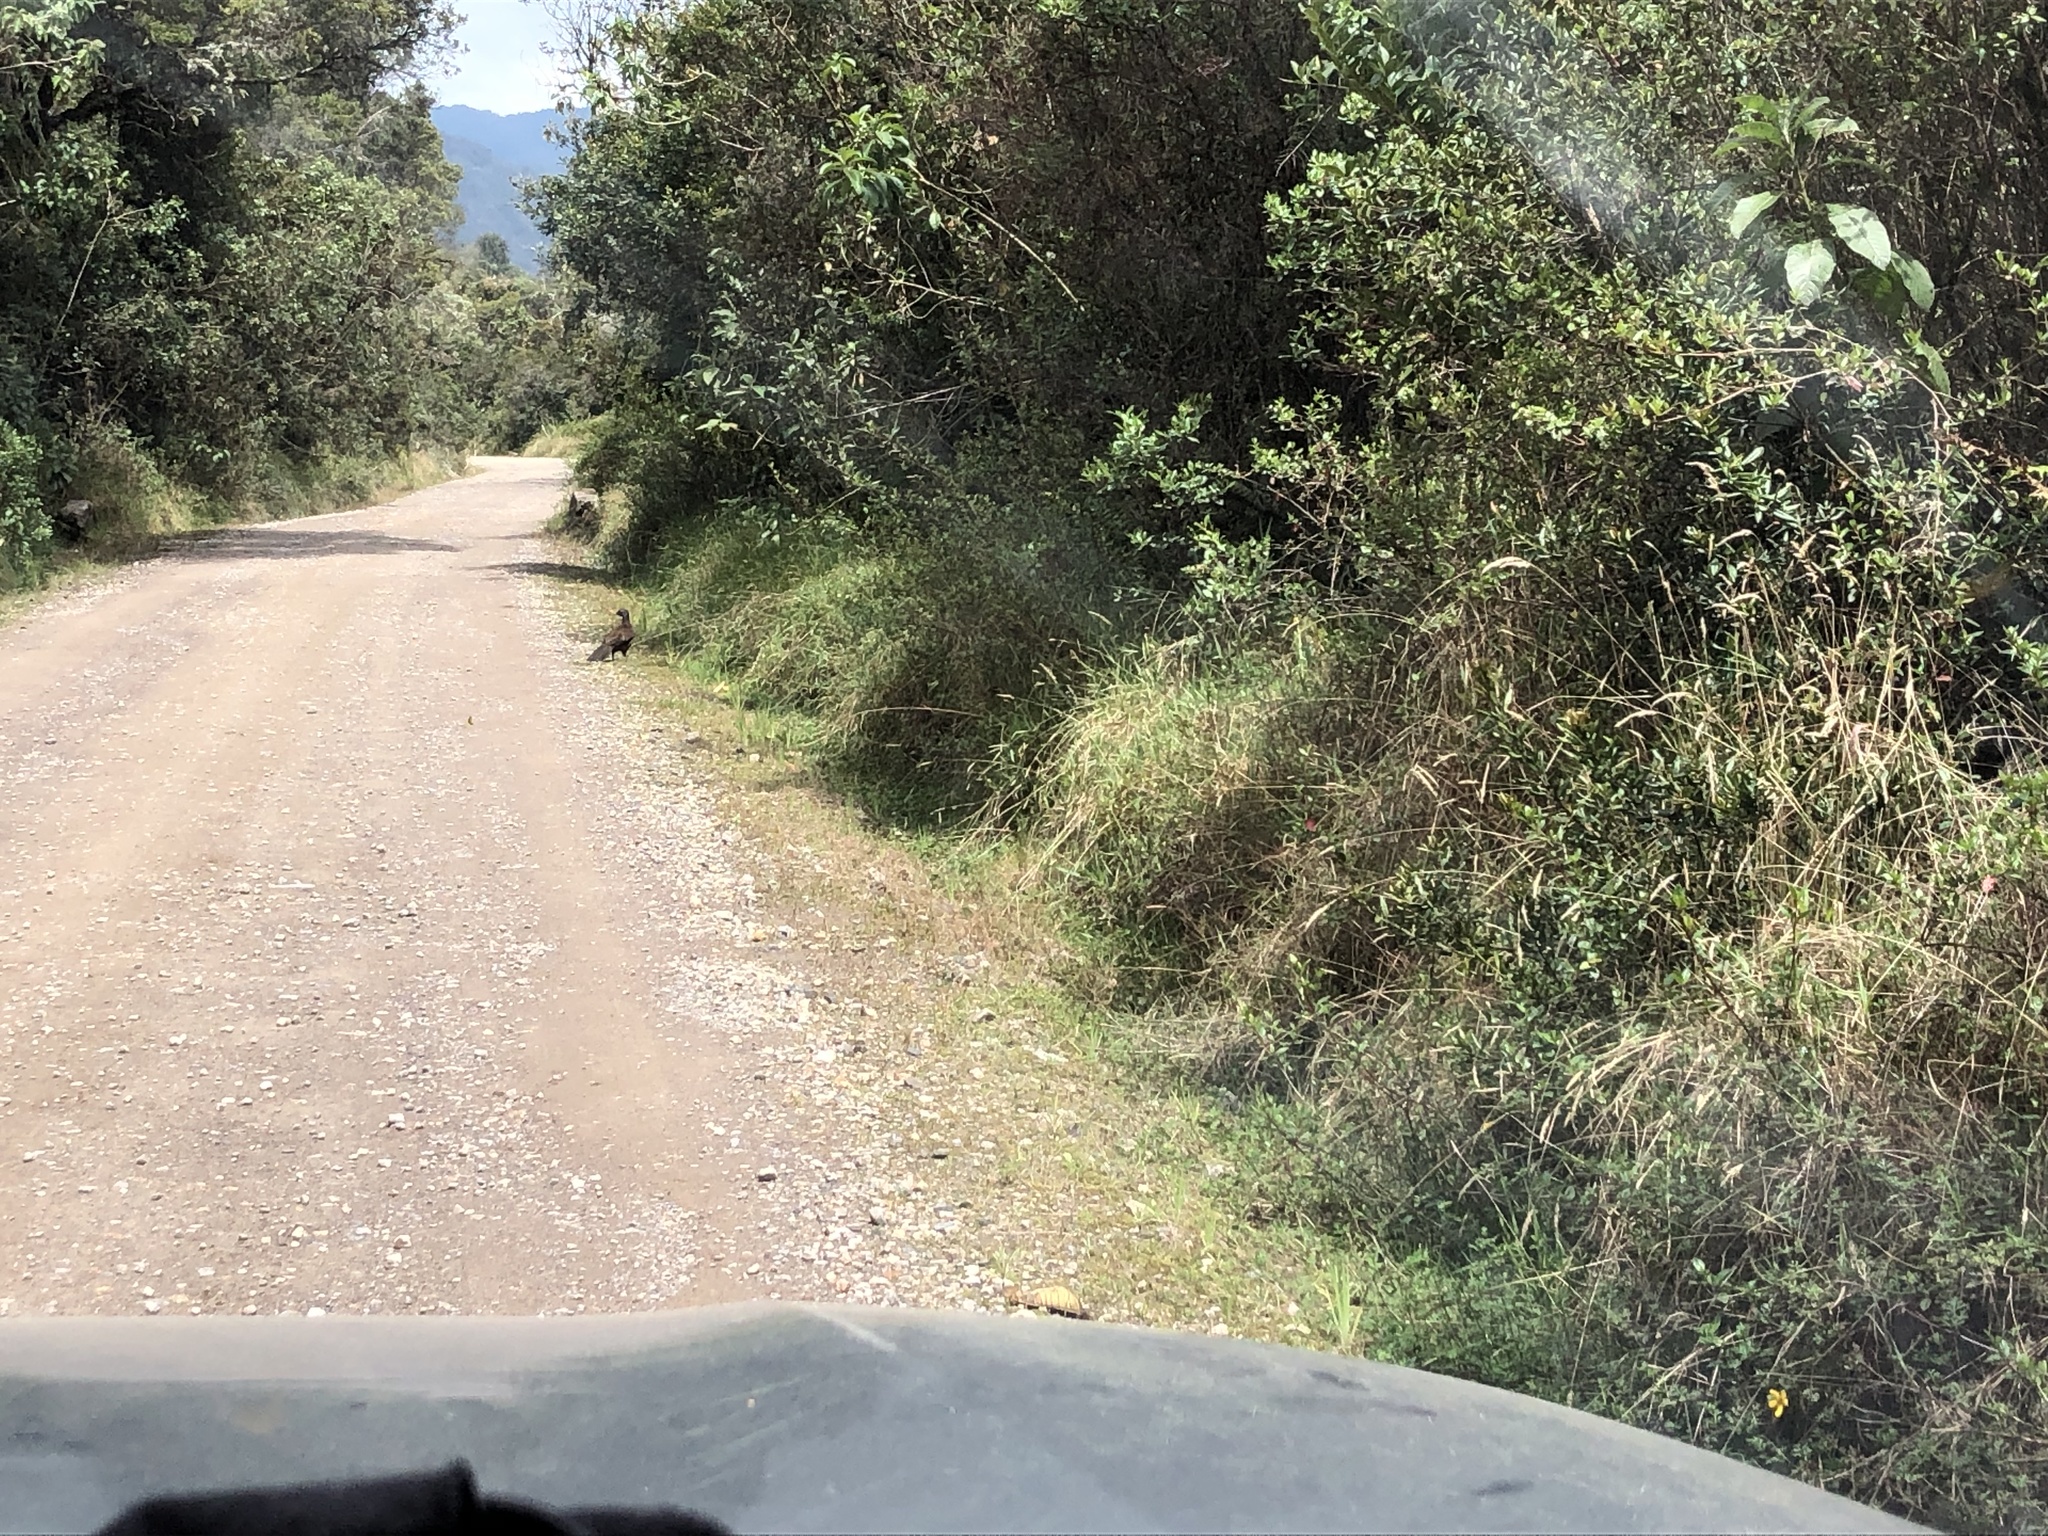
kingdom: Animalia
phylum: Chordata
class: Aves
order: Galliformes
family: Cracidae
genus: Penelope
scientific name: Penelope montagnii
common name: Andean guan
